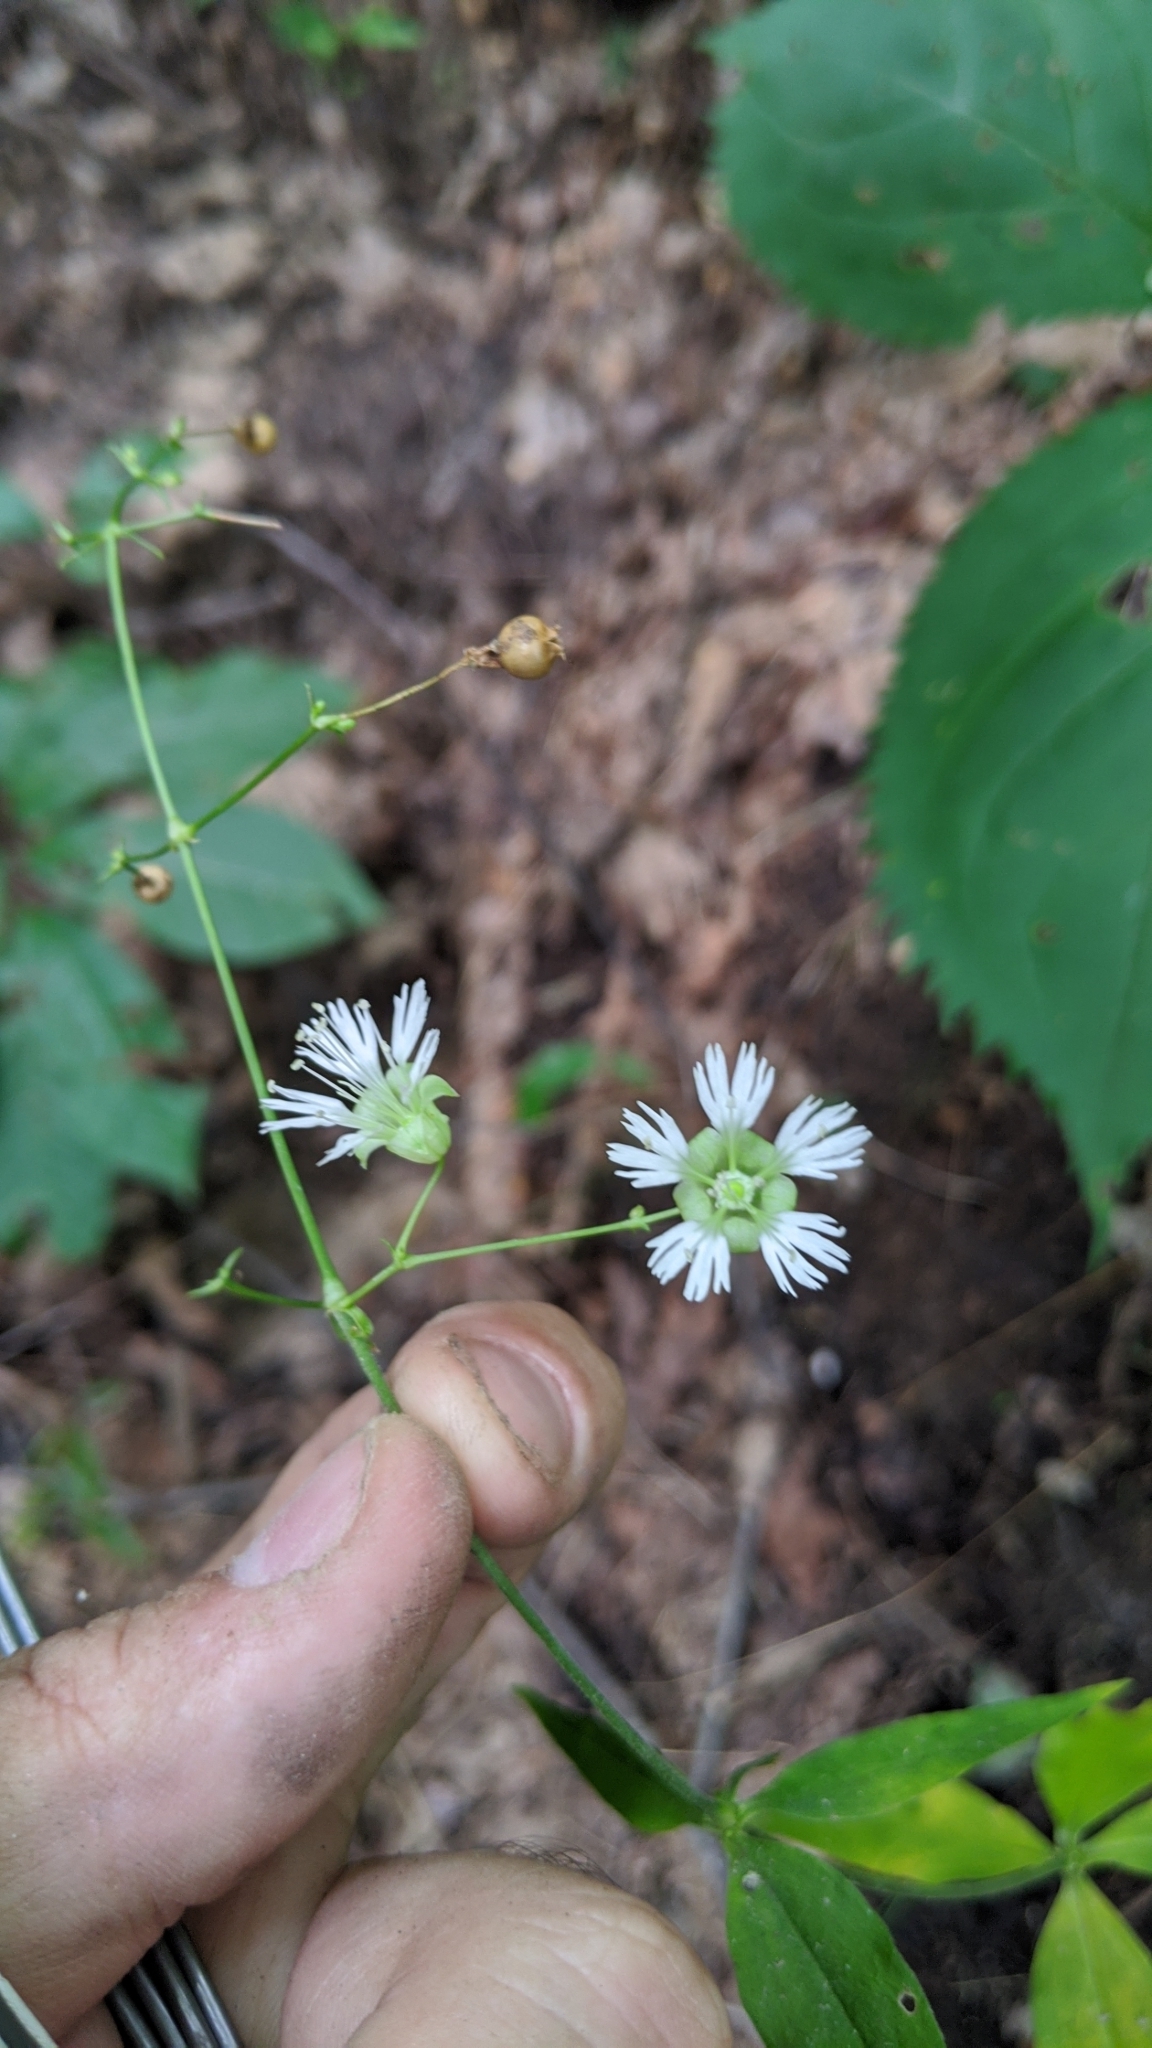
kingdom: Plantae
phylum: Tracheophyta
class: Magnoliopsida
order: Caryophyllales
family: Caryophyllaceae
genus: Silene
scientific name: Silene stellata
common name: Starry campion
